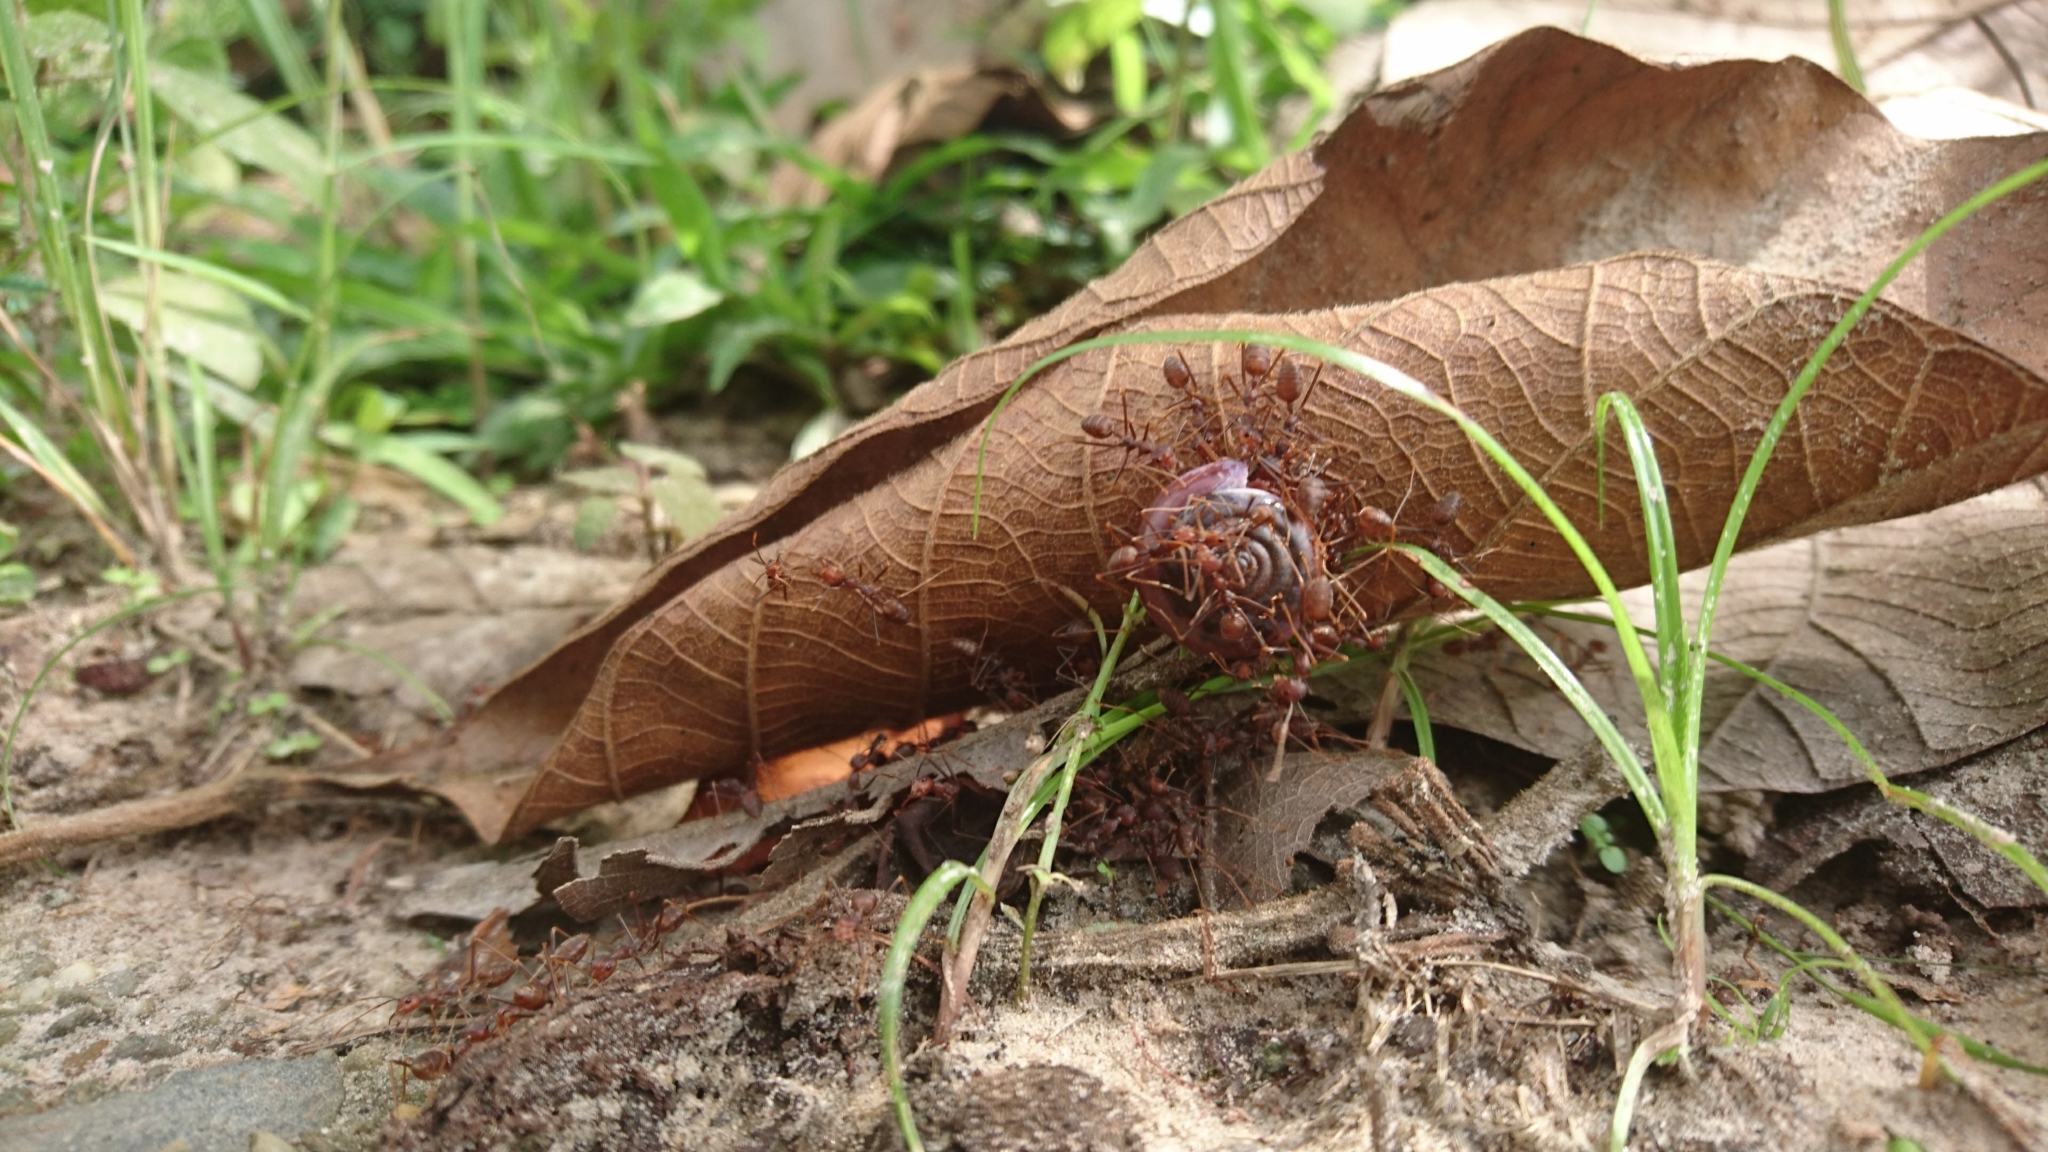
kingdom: Animalia
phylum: Arthropoda
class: Insecta
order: Hymenoptera
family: Formicidae
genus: Oecophylla
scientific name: Oecophylla smaragdina
